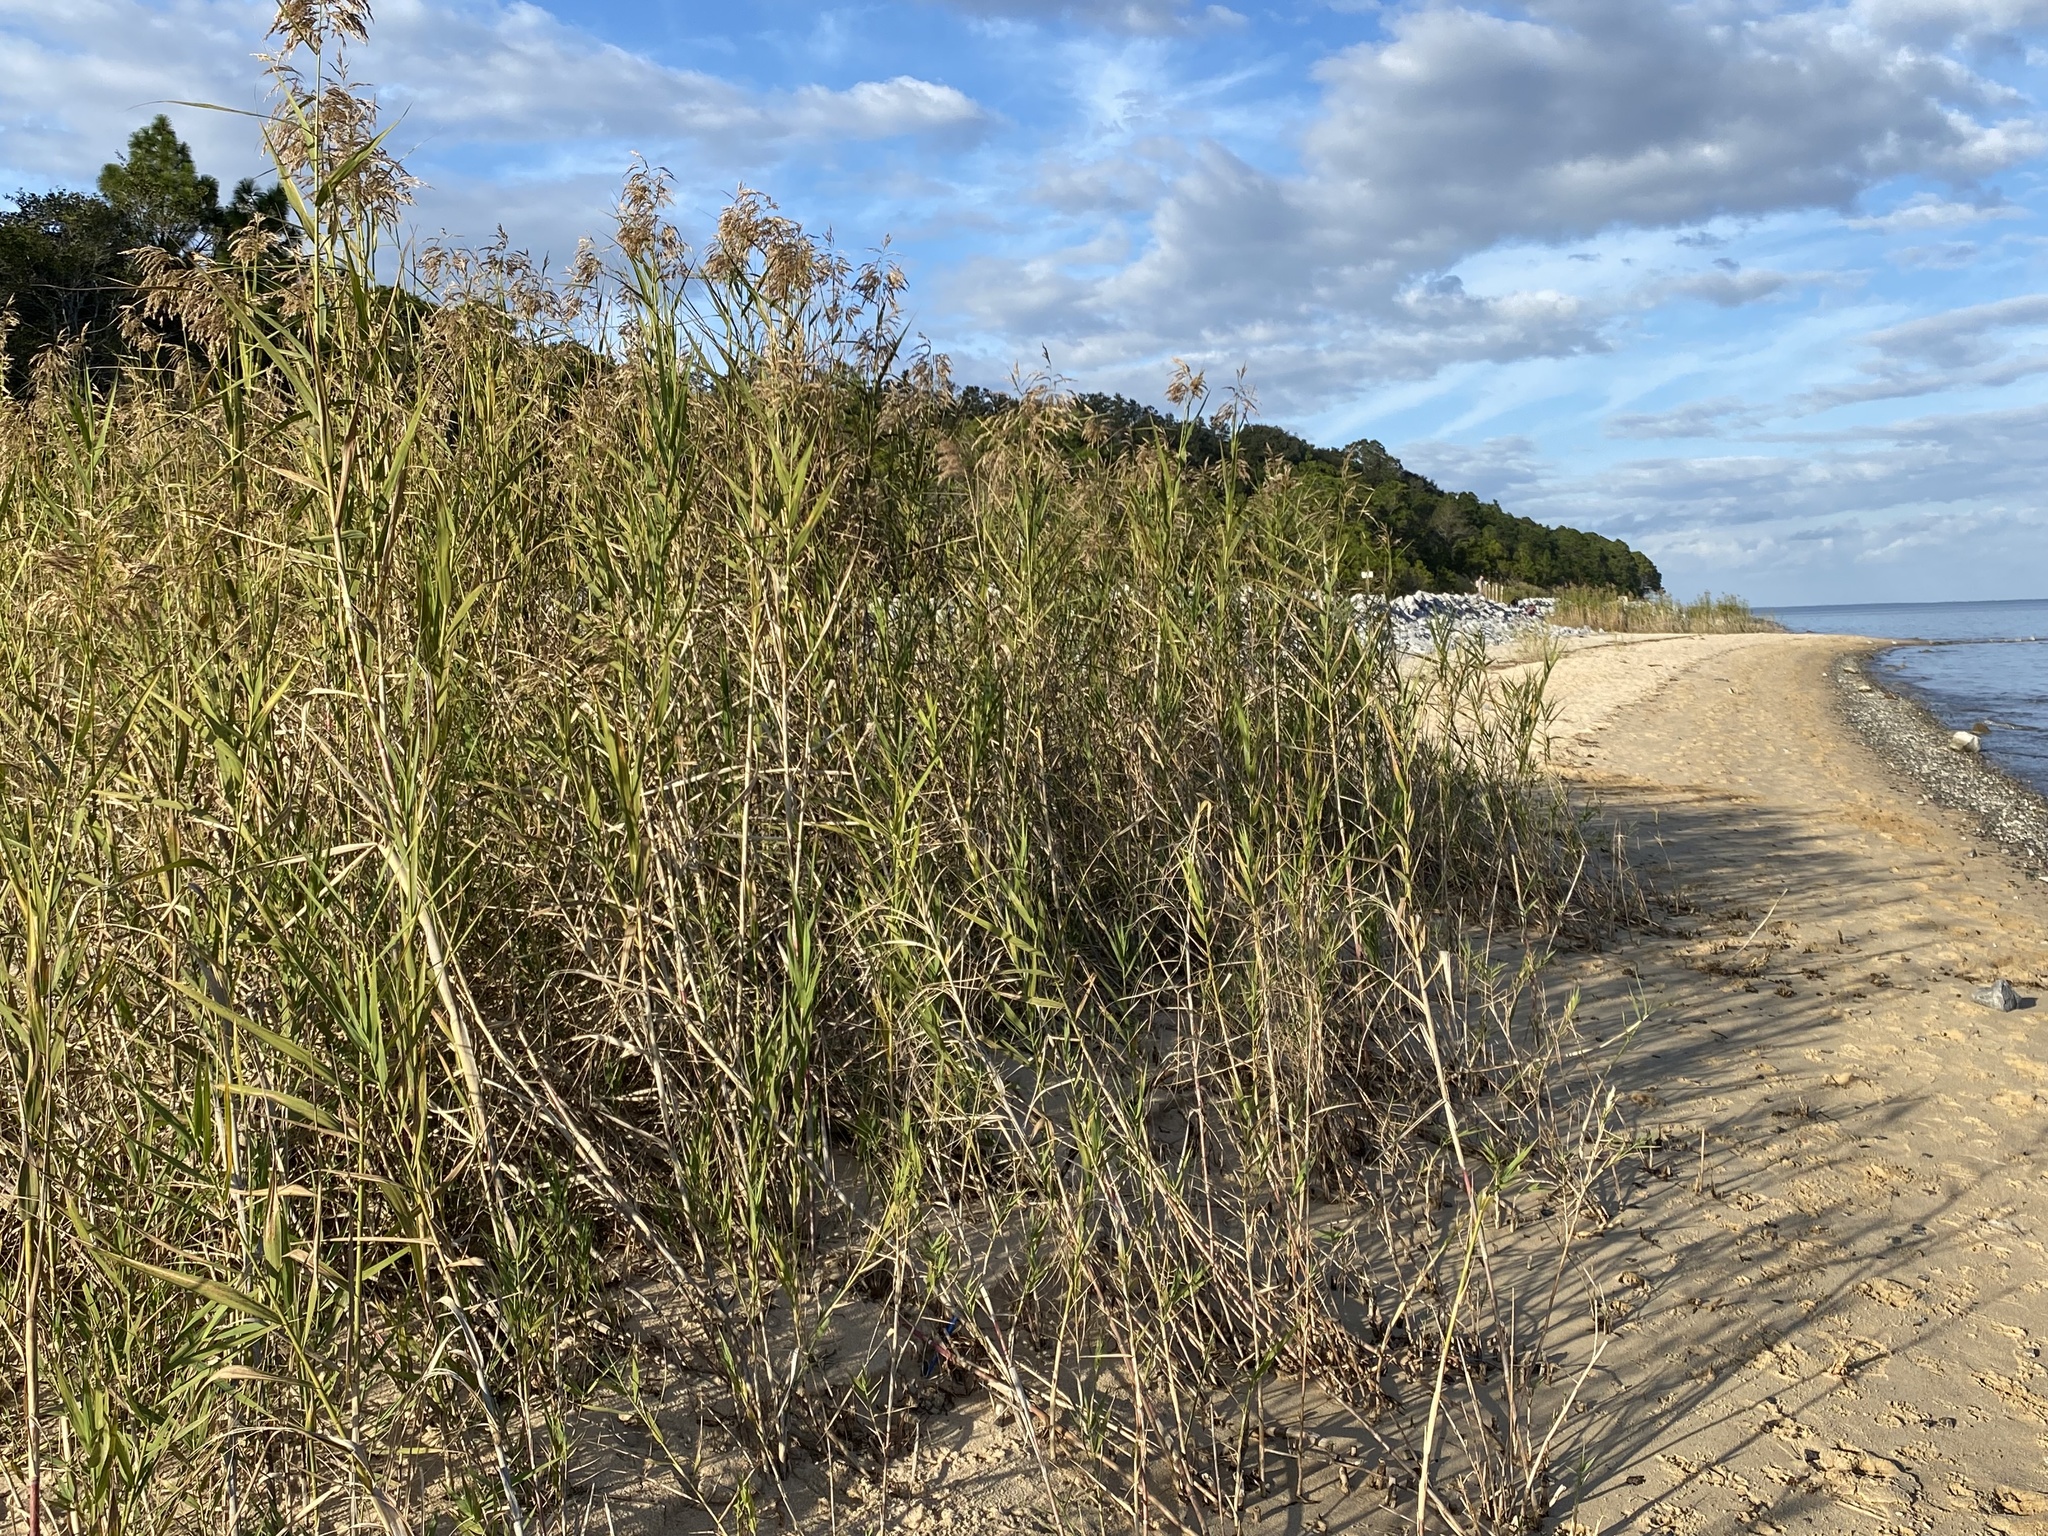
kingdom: Plantae
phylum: Tracheophyta
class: Liliopsida
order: Poales
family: Poaceae
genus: Phragmites
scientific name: Phragmites australis
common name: Common reed
